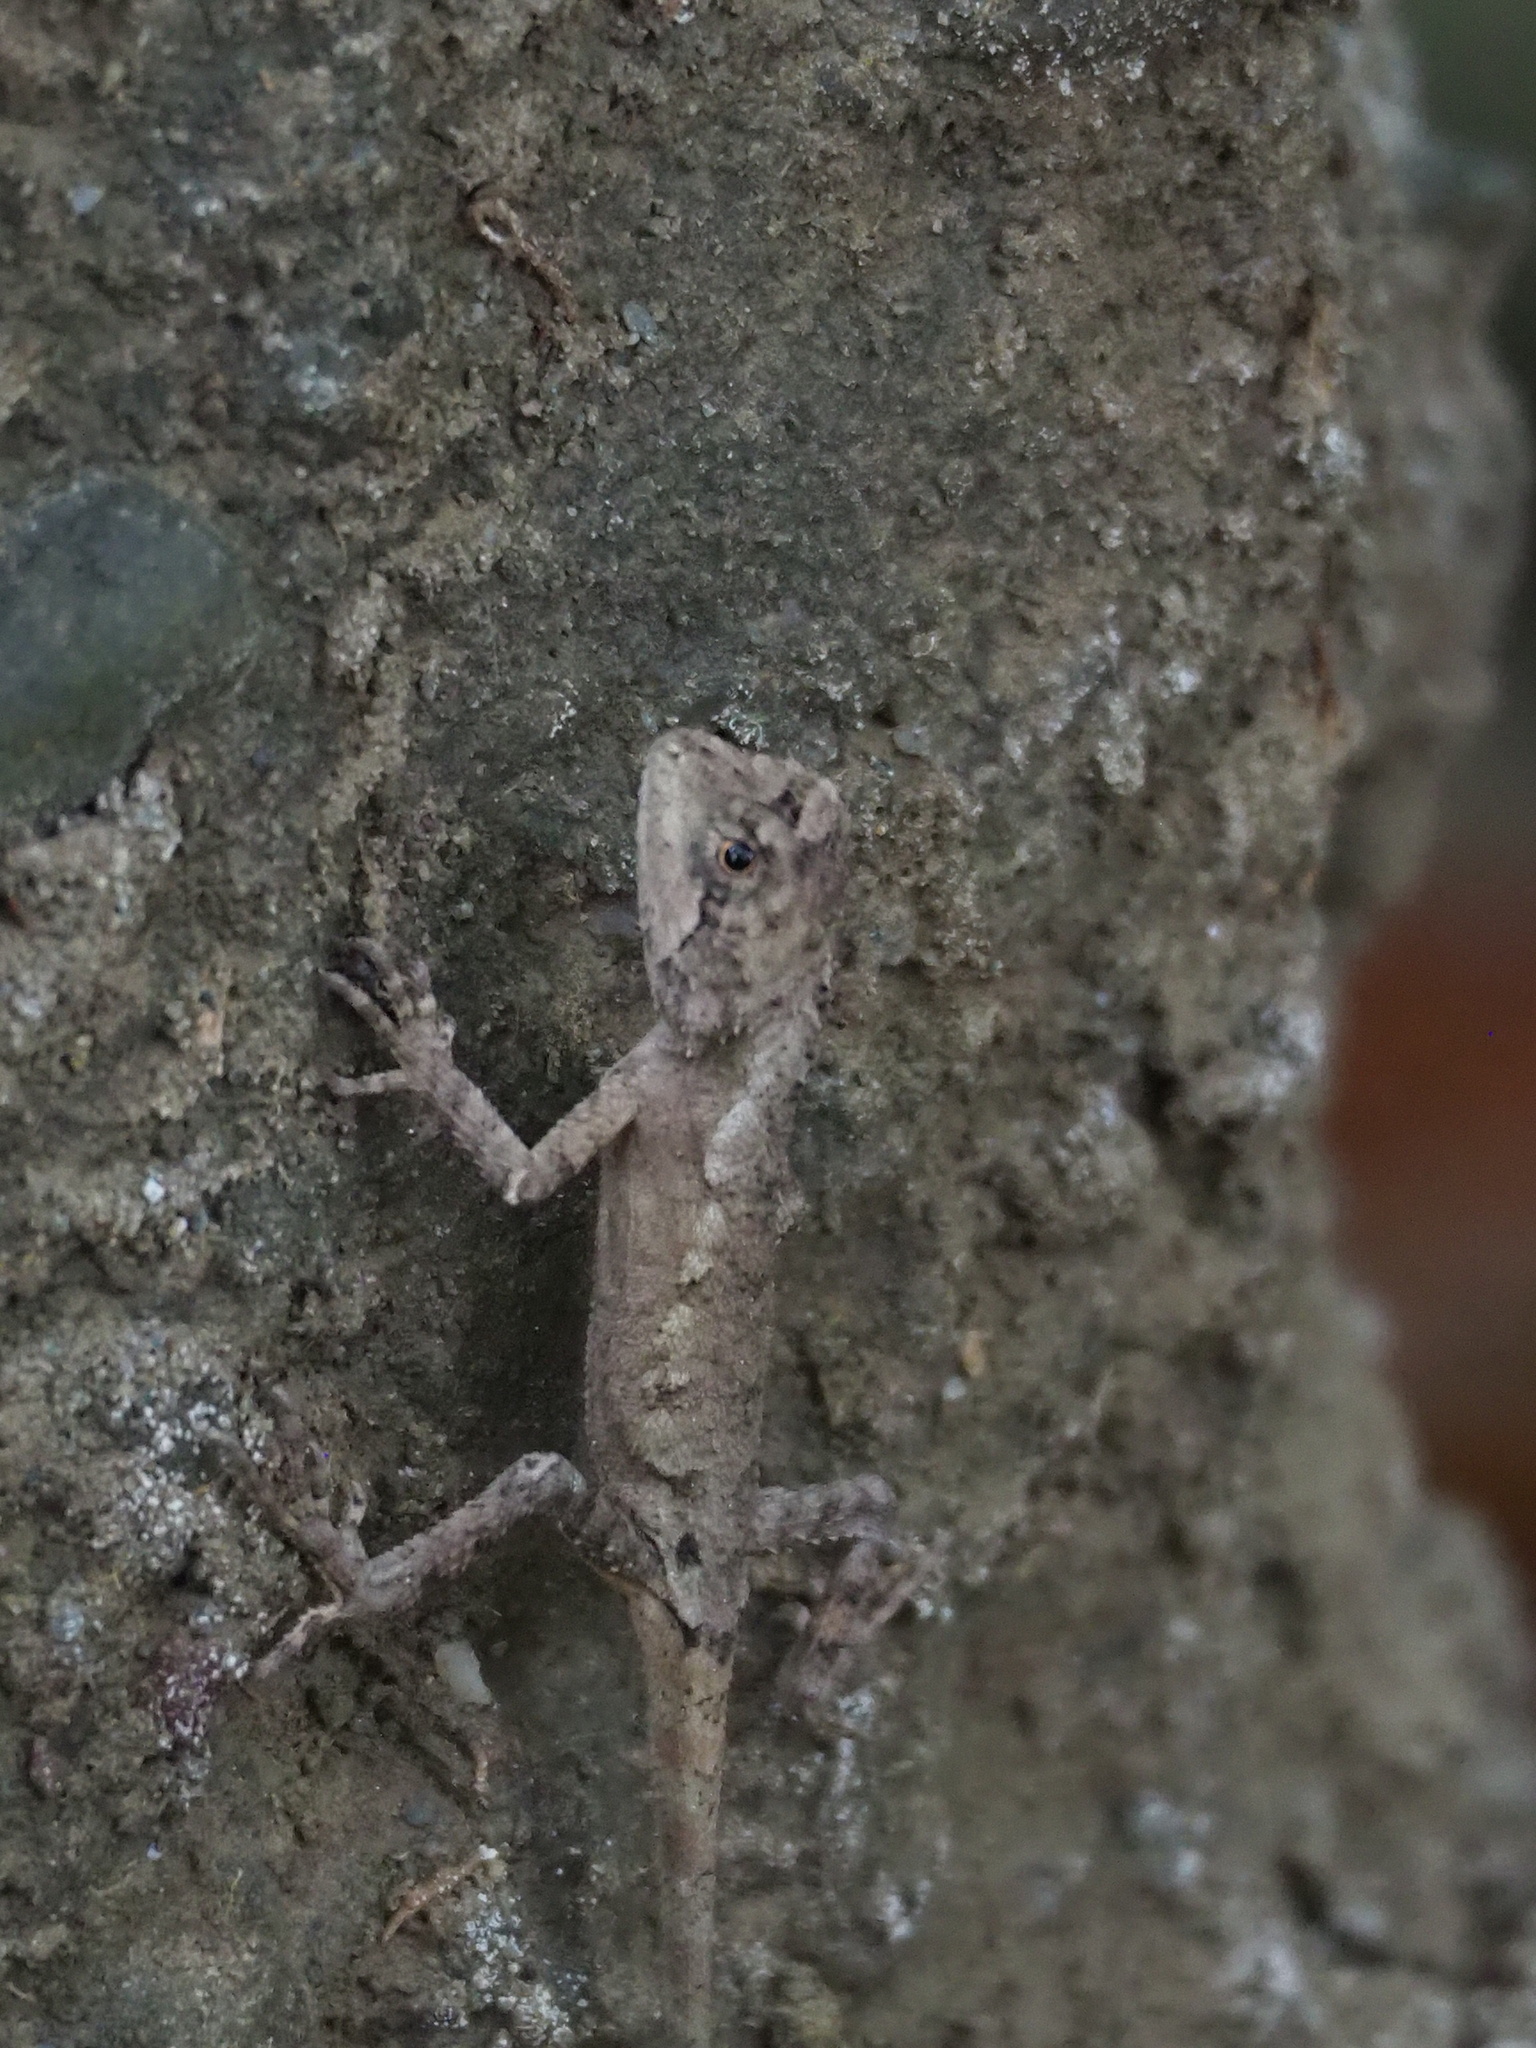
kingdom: Animalia
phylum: Chordata
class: Squamata
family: Agamidae
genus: Diploderma
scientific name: Diploderma swinhonis
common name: Taiwan japalure
